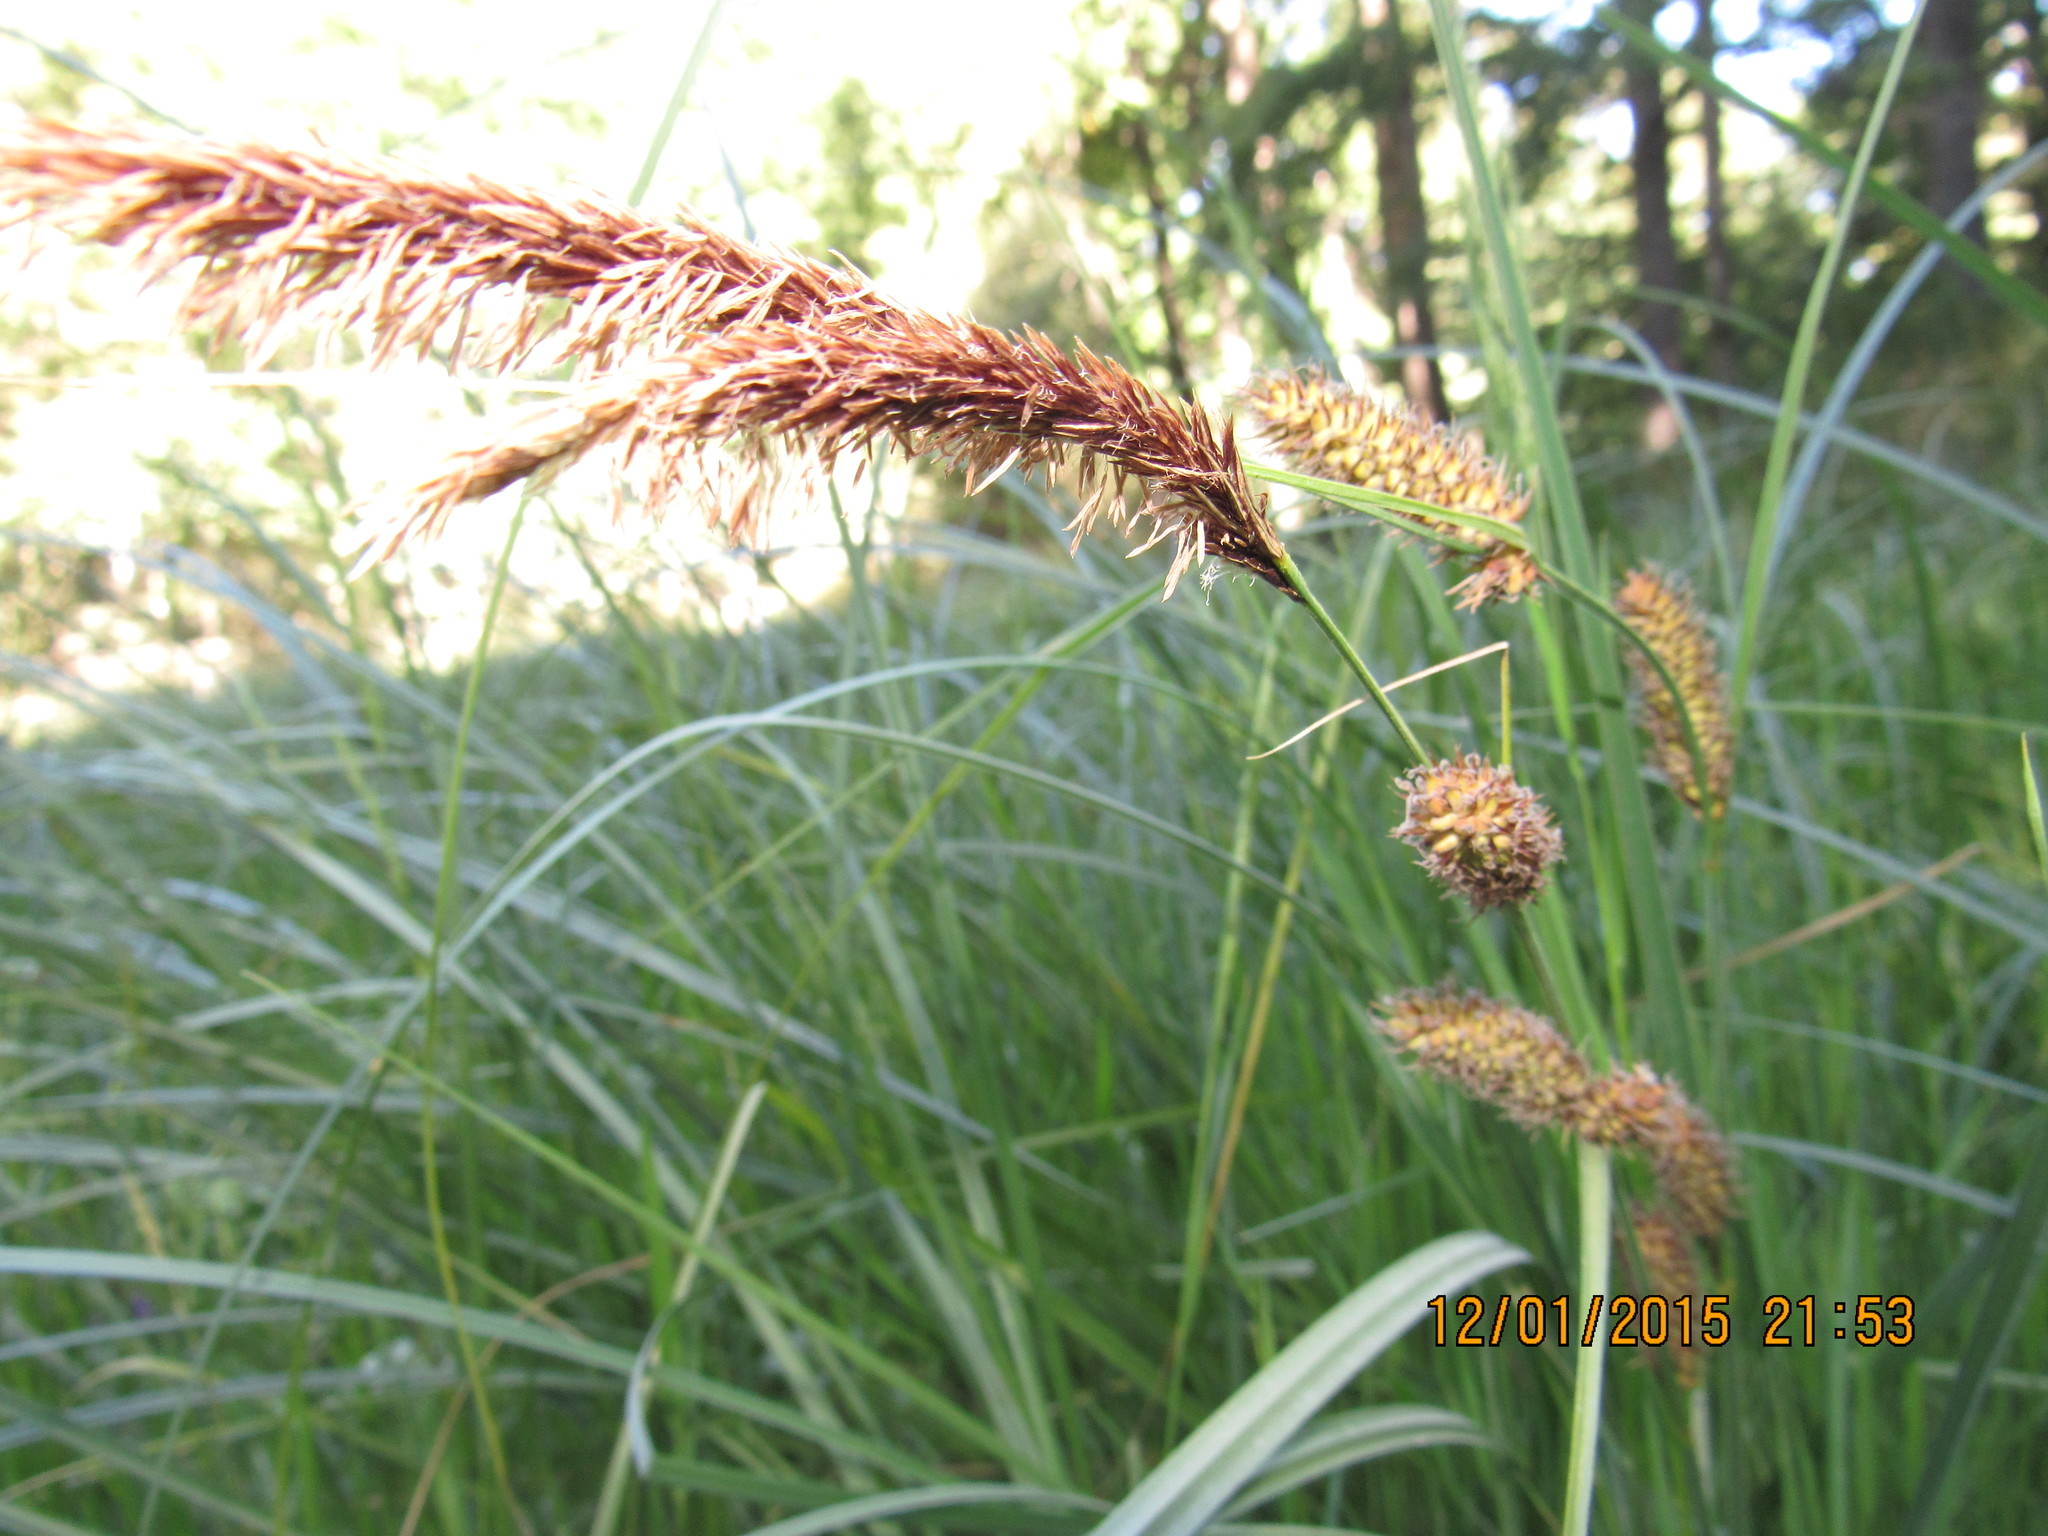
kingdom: Plantae
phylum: Tracheophyta
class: Liliopsida
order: Poales
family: Cyperaceae
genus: Carex
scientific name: Carex aematorhyncha
